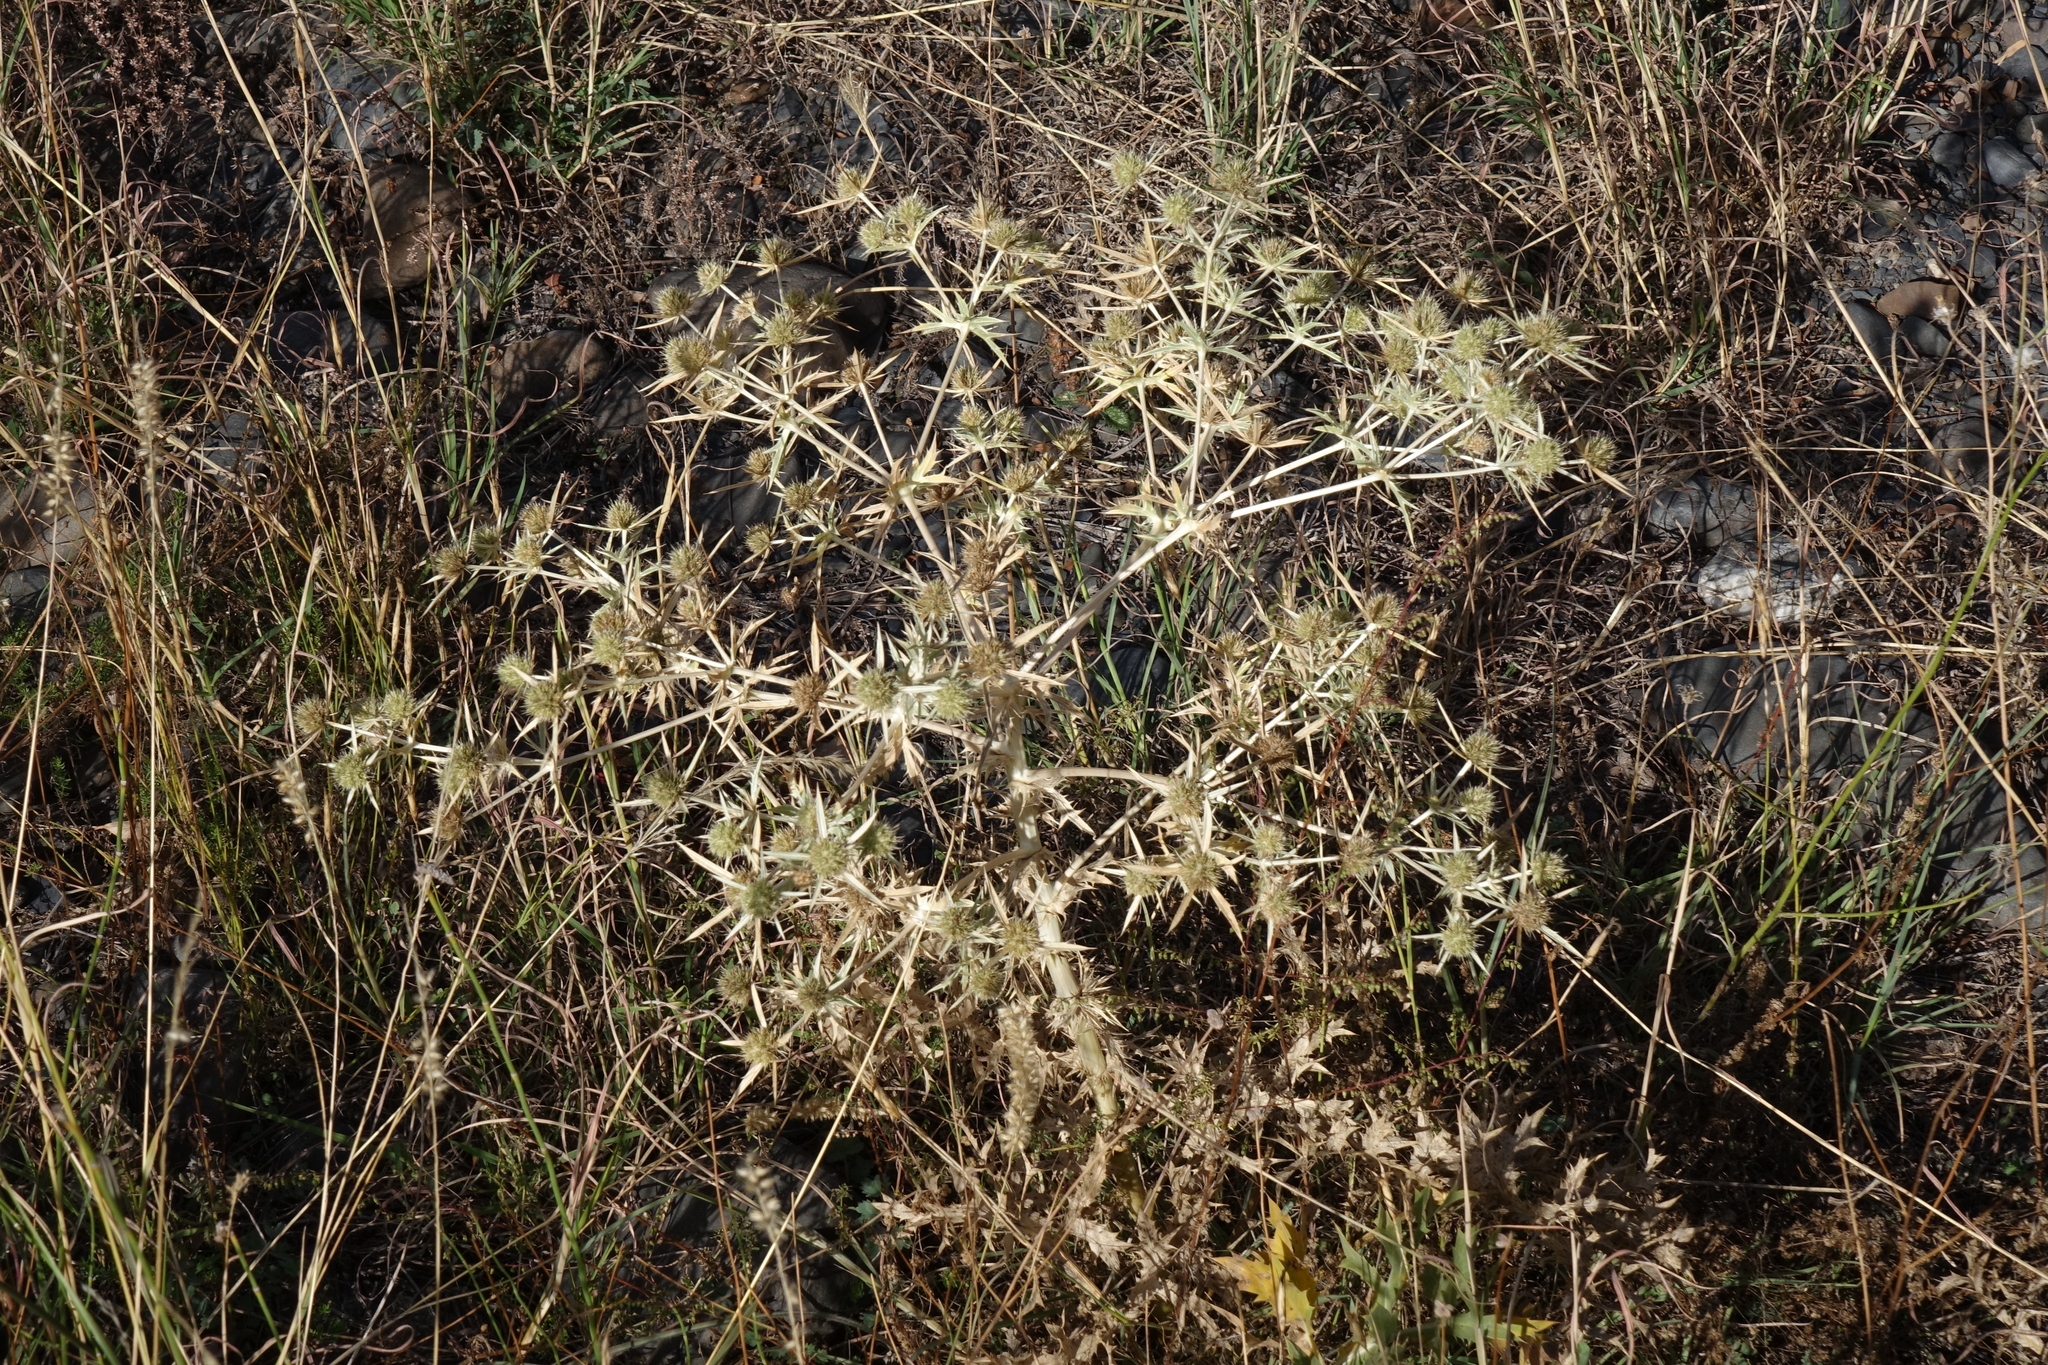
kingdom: Plantae
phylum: Tracheophyta
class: Magnoliopsida
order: Apiales
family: Apiaceae
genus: Eryngium
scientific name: Eryngium campestre
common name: Field eryngo
